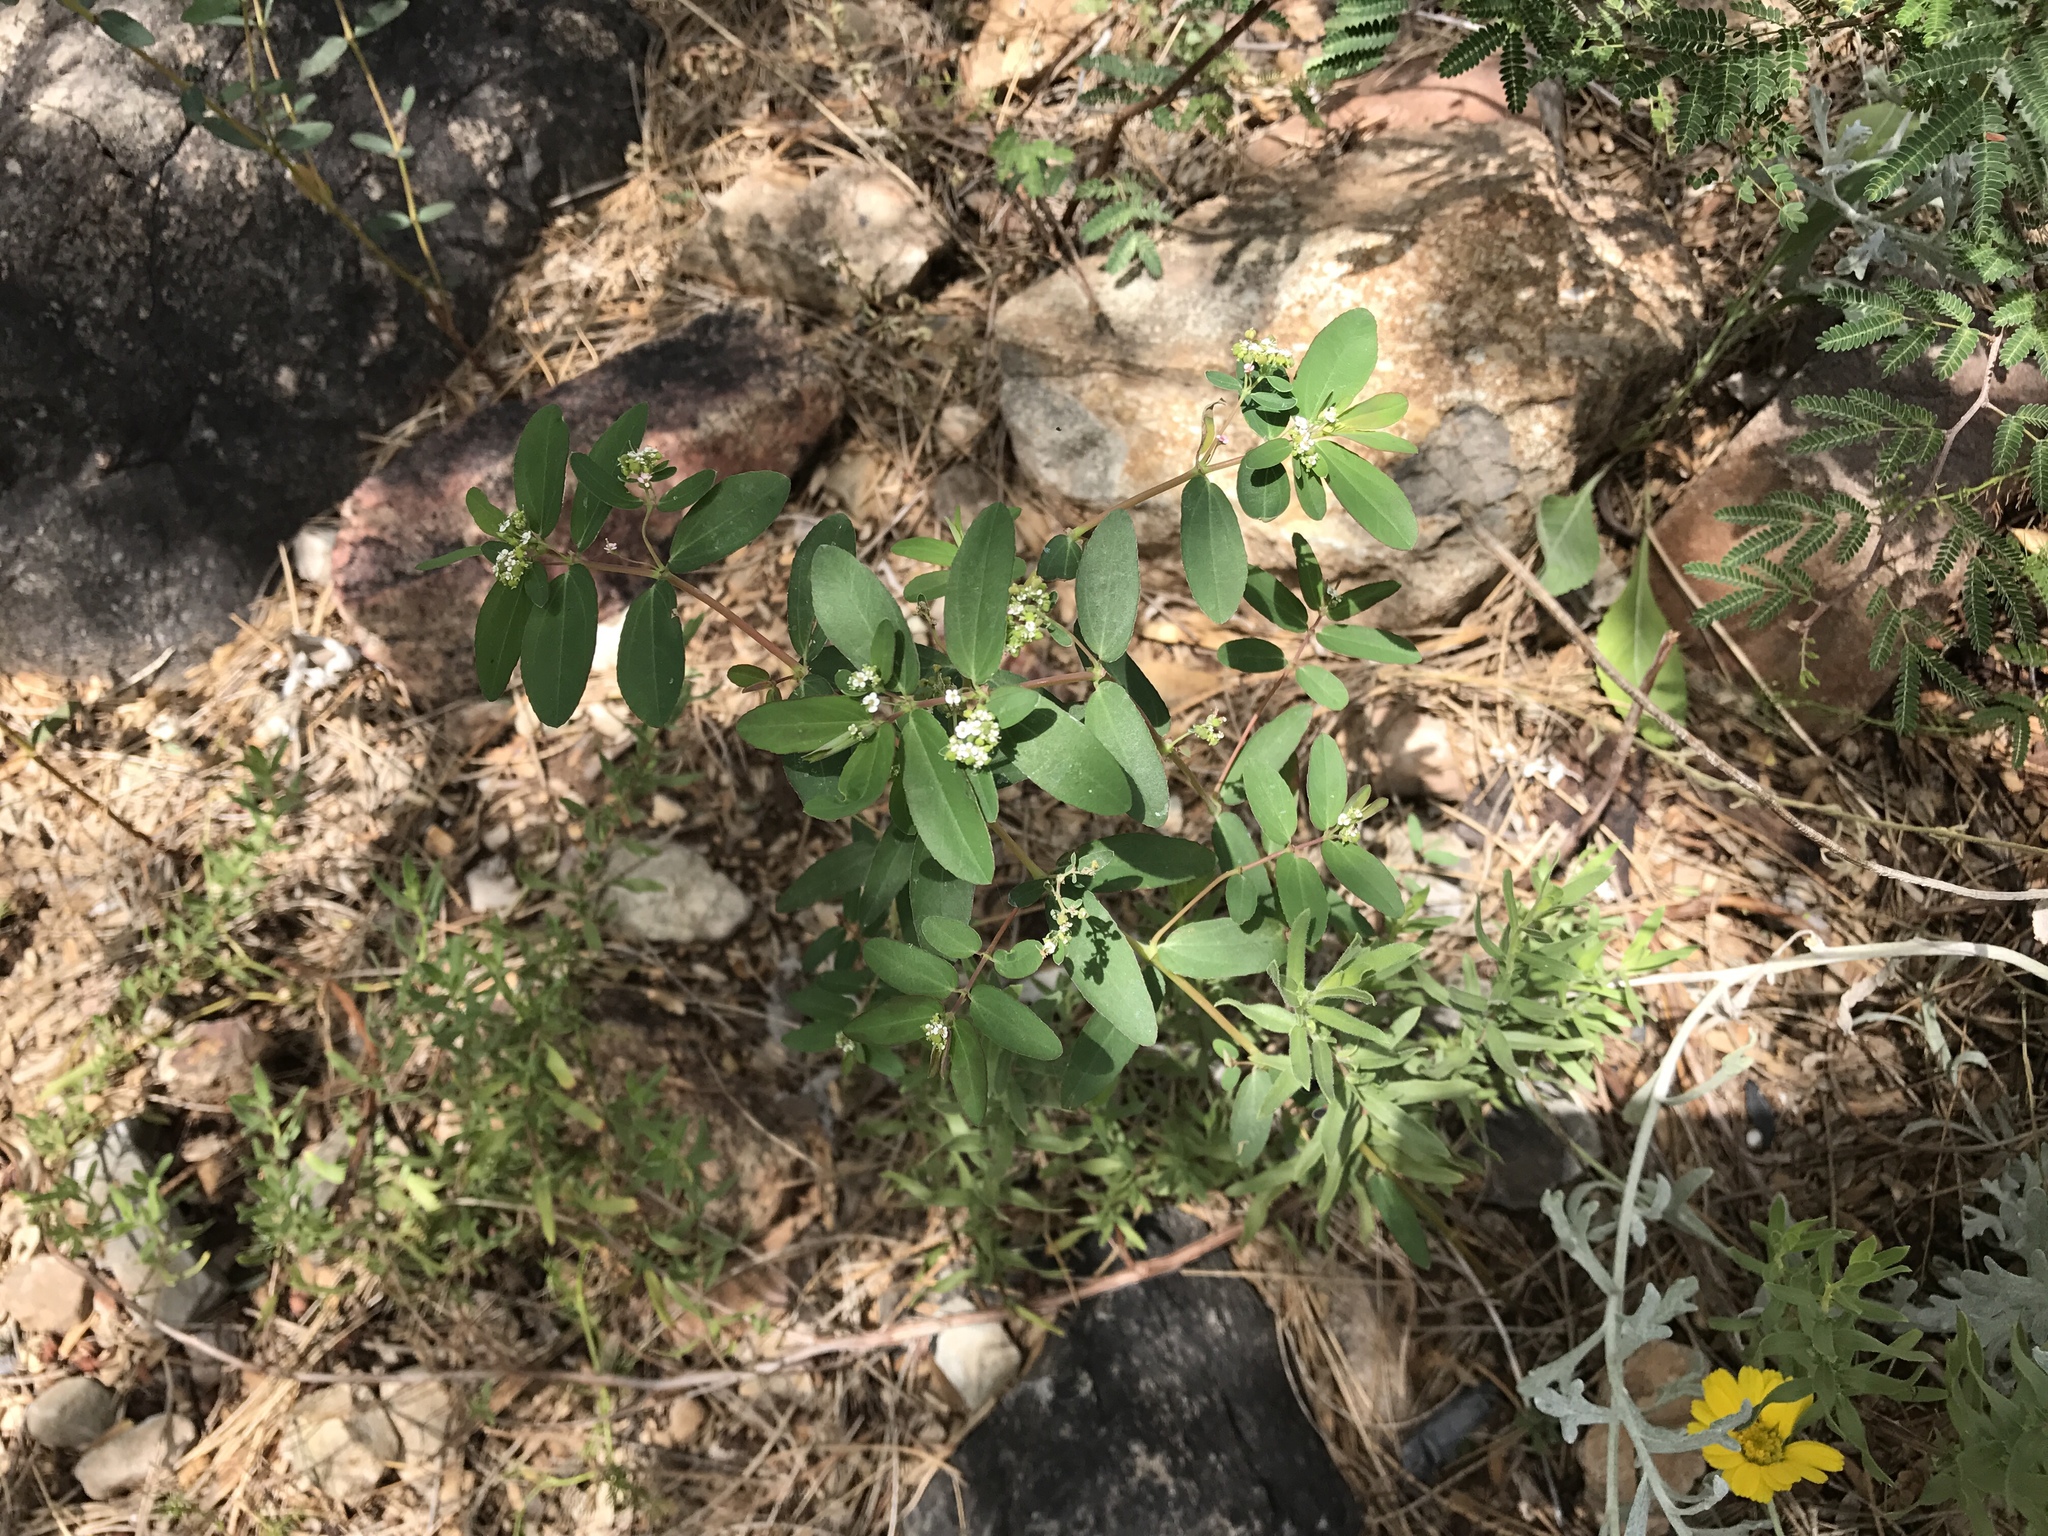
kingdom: Plantae
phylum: Tracheophyta
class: Magnoliopsida
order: Malpighiales
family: Euphorbiaceae
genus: Euphorbia
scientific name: Euphorbia hypericifolia
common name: Graceful sandmat
